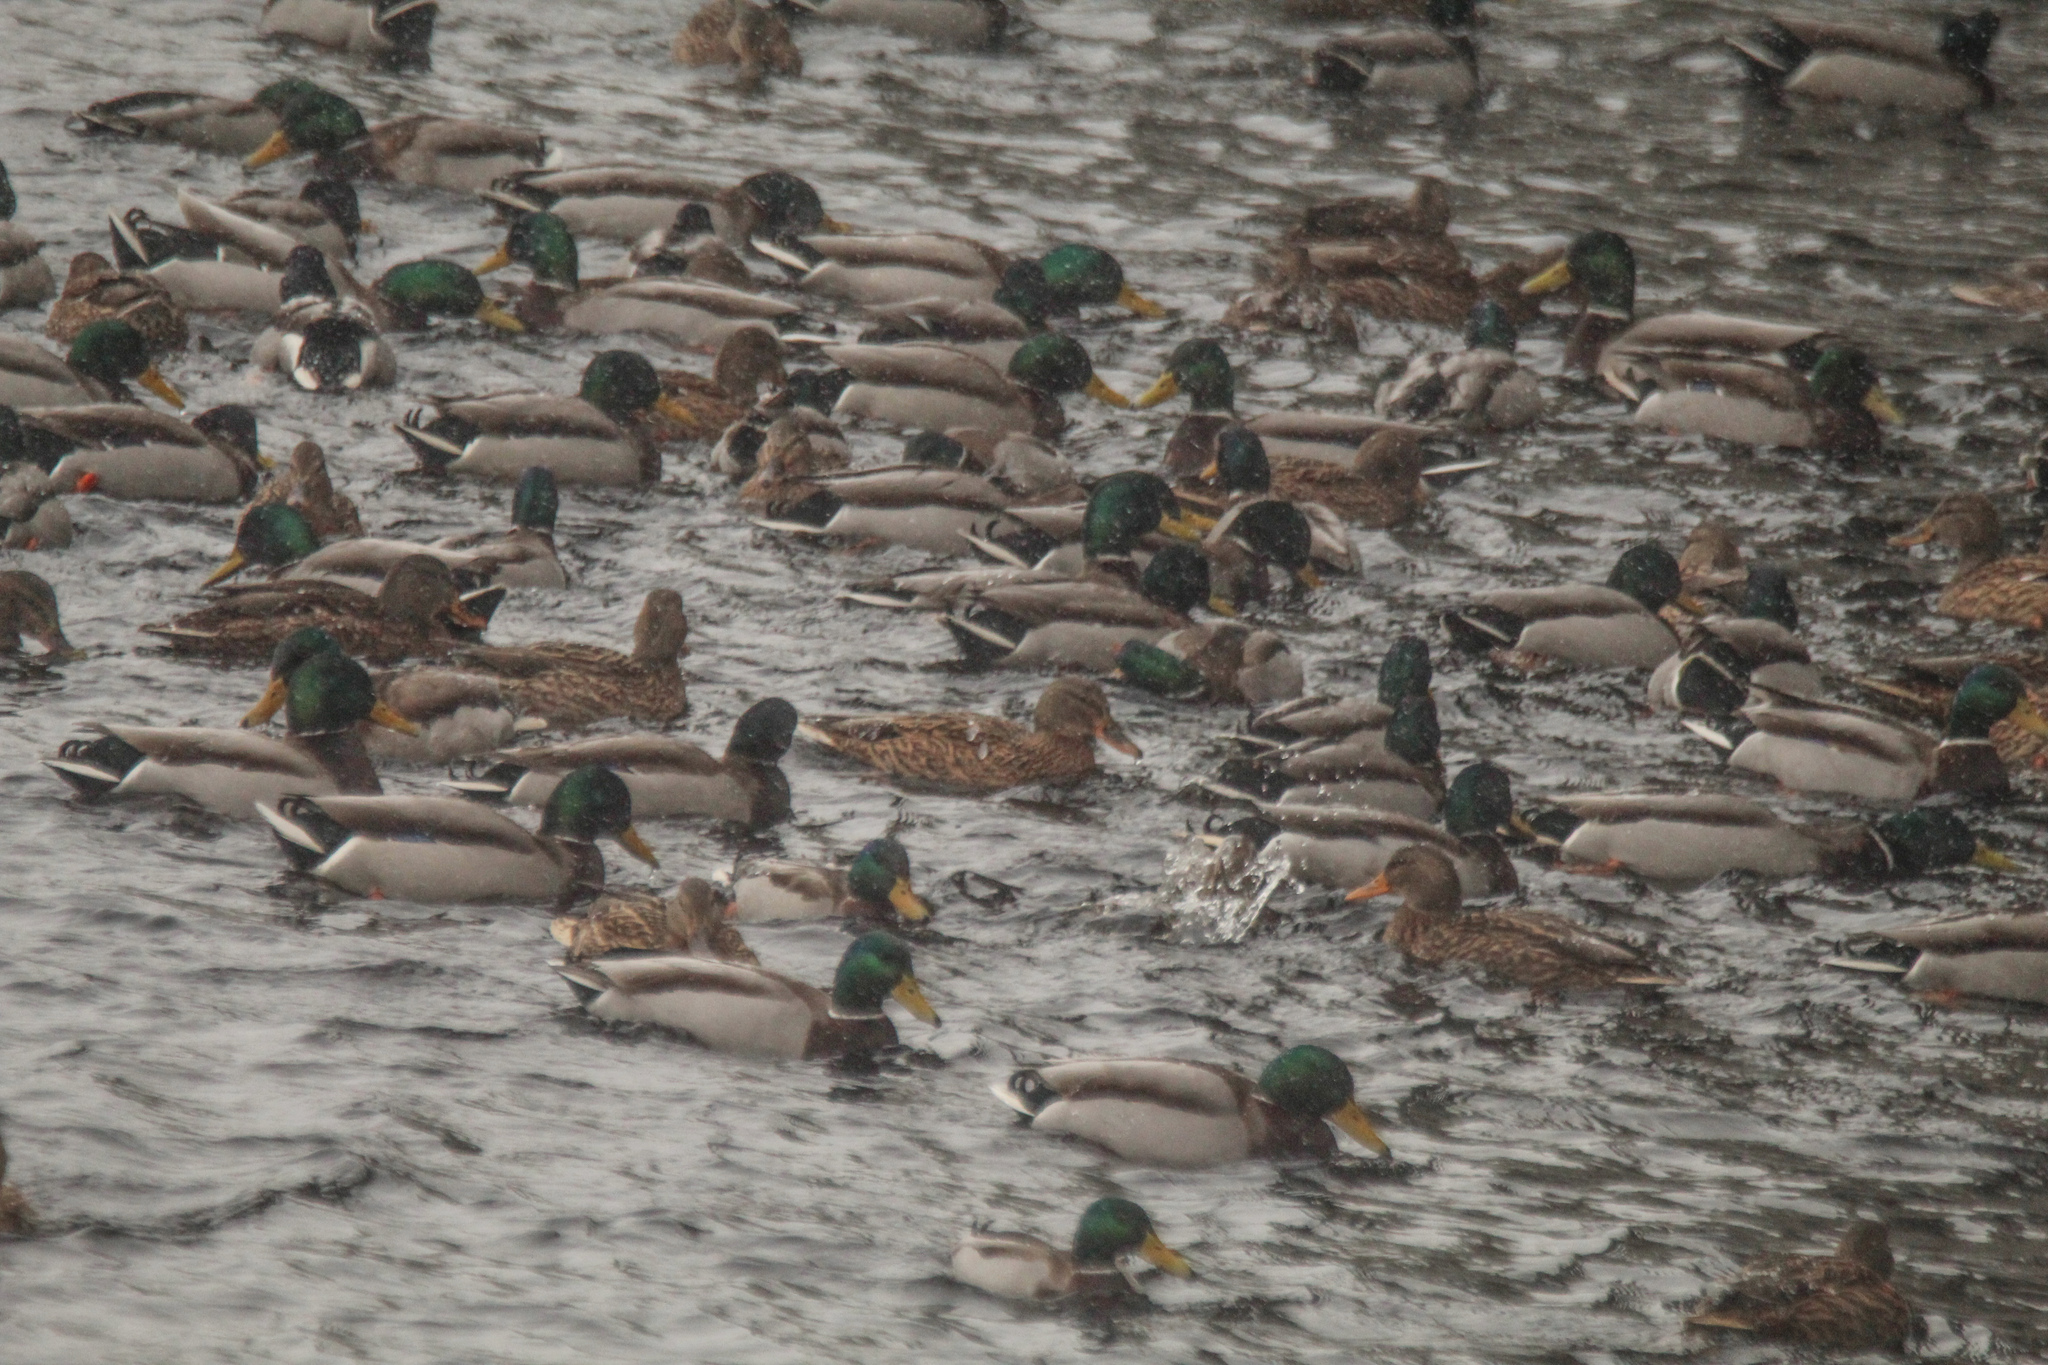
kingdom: Animalia
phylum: Chordata
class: Aves
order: Anseriformes
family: Anatidae
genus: Anas
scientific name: Anas platyrhynchos
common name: Mallard
